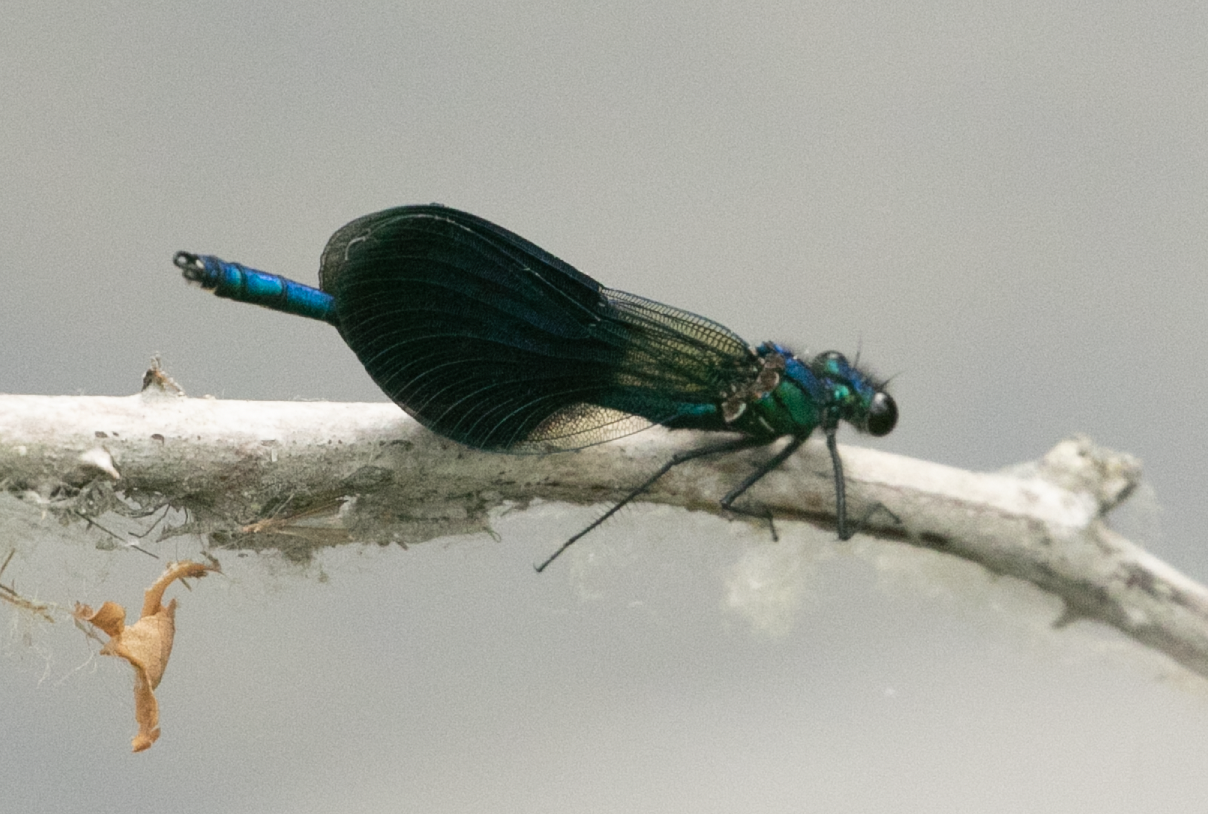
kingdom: Animalia
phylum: Arthropoda
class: Insecta
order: Odonata
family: Calopterygidae
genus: Calopteryx
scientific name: Calopteryx splendens
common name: Banded demoiselle
